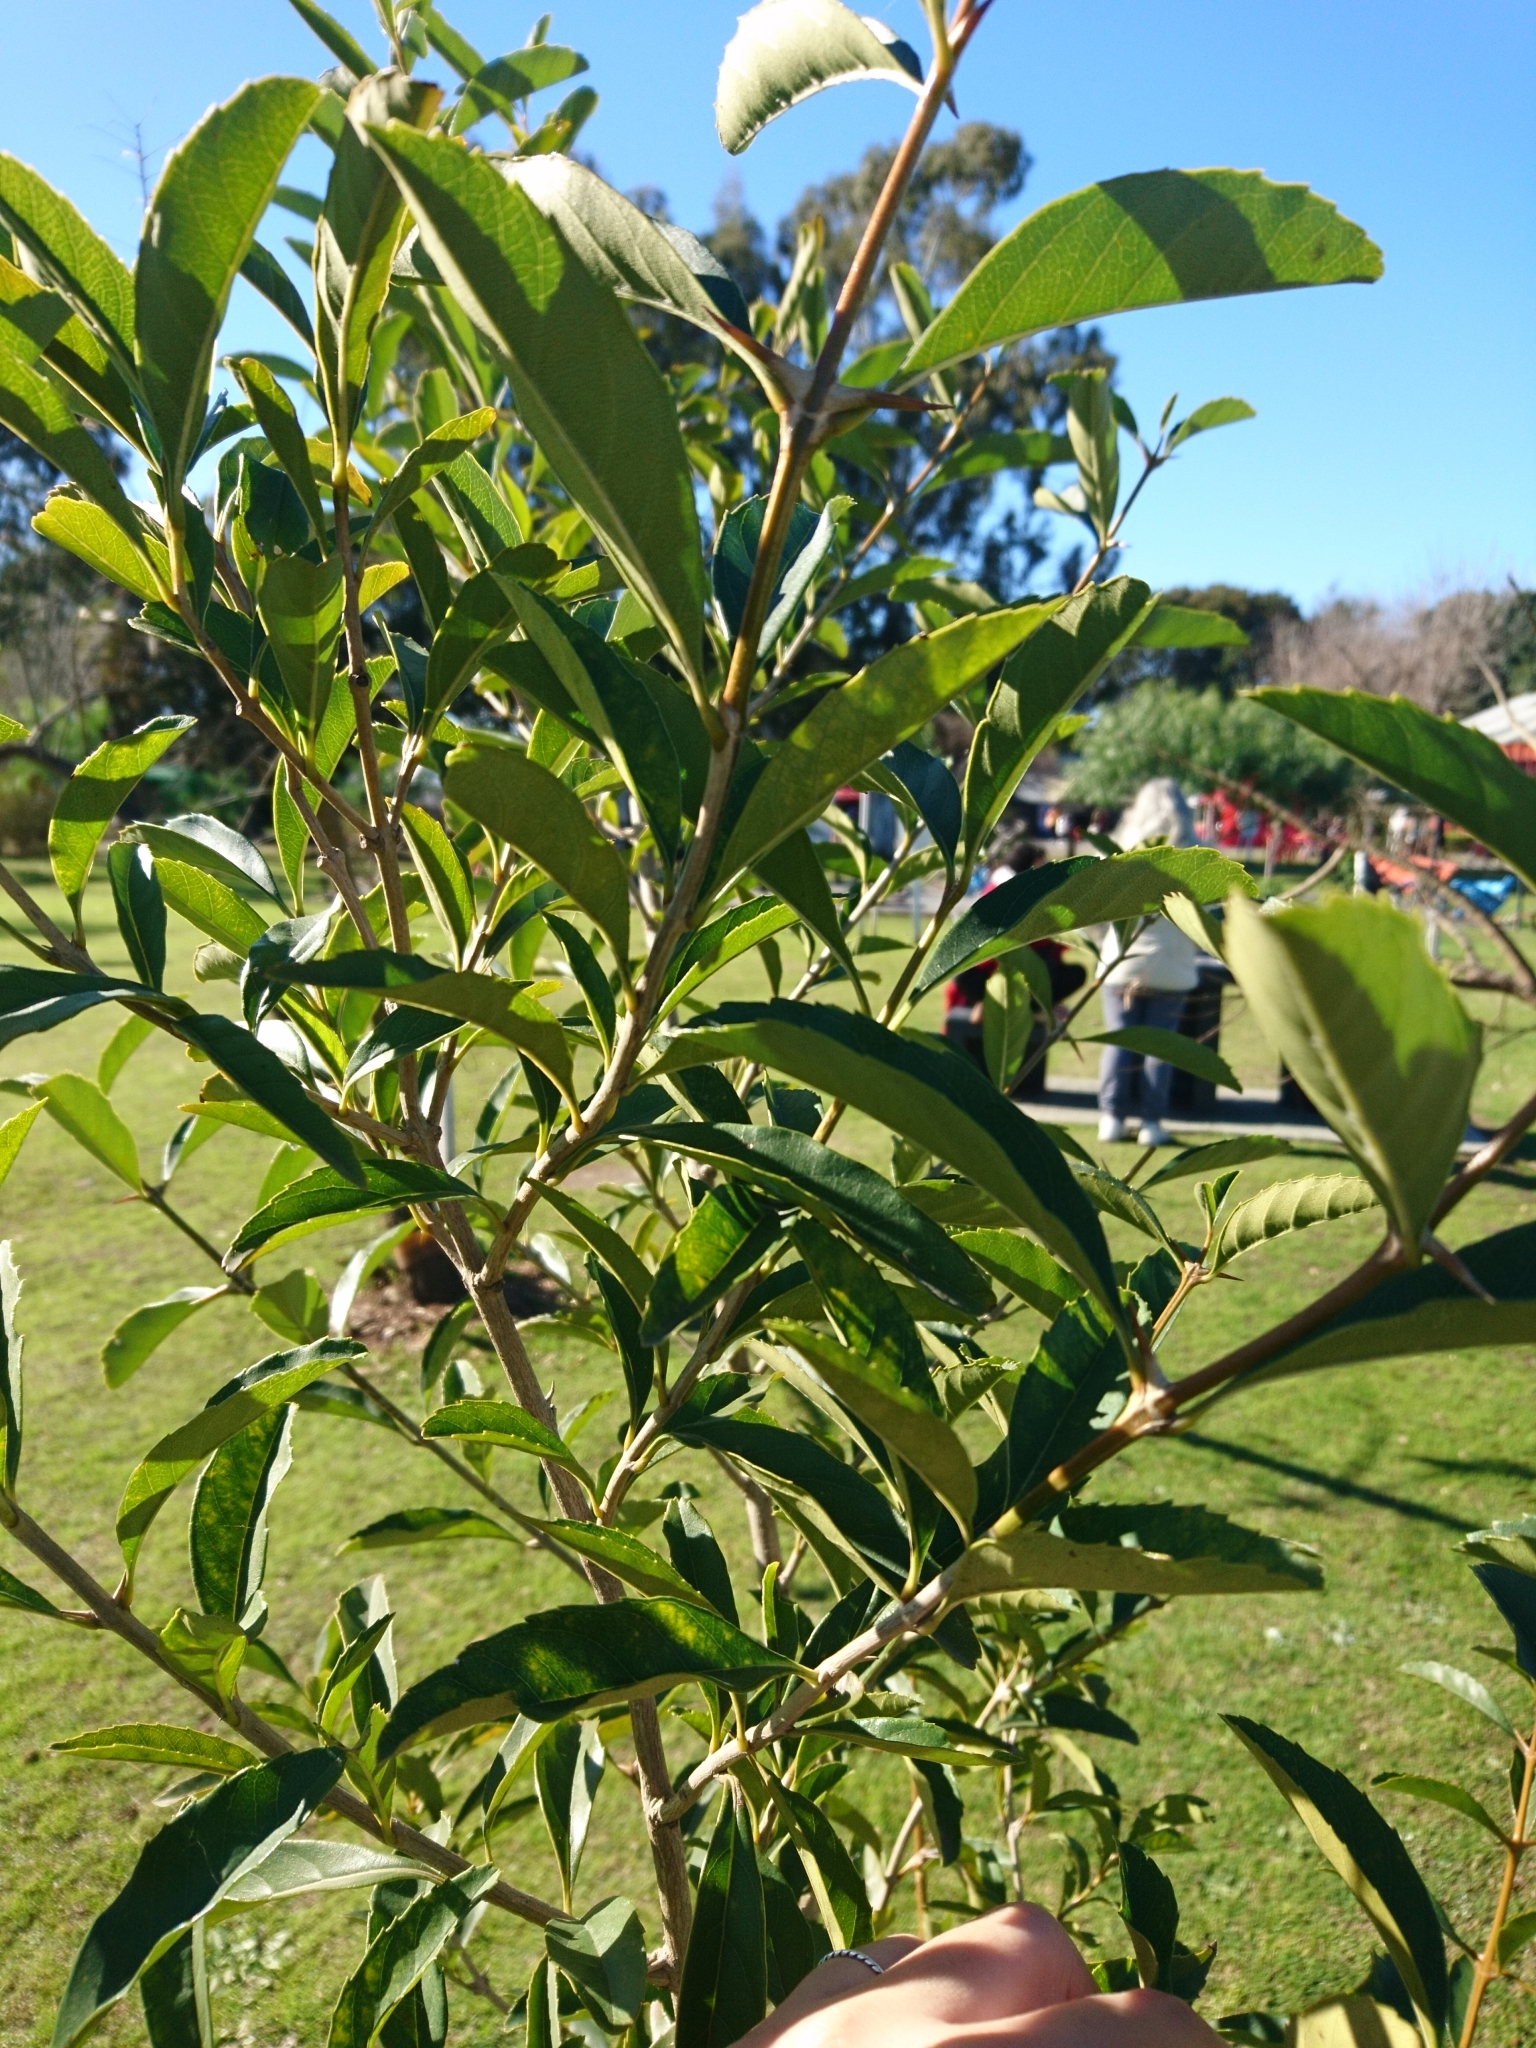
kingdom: Plantae
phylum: Tracheophyta
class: Magnoliopsida
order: Lamiales
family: Verbenaceae
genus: Duranta
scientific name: Duranta erecta
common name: Golden dewdrops
